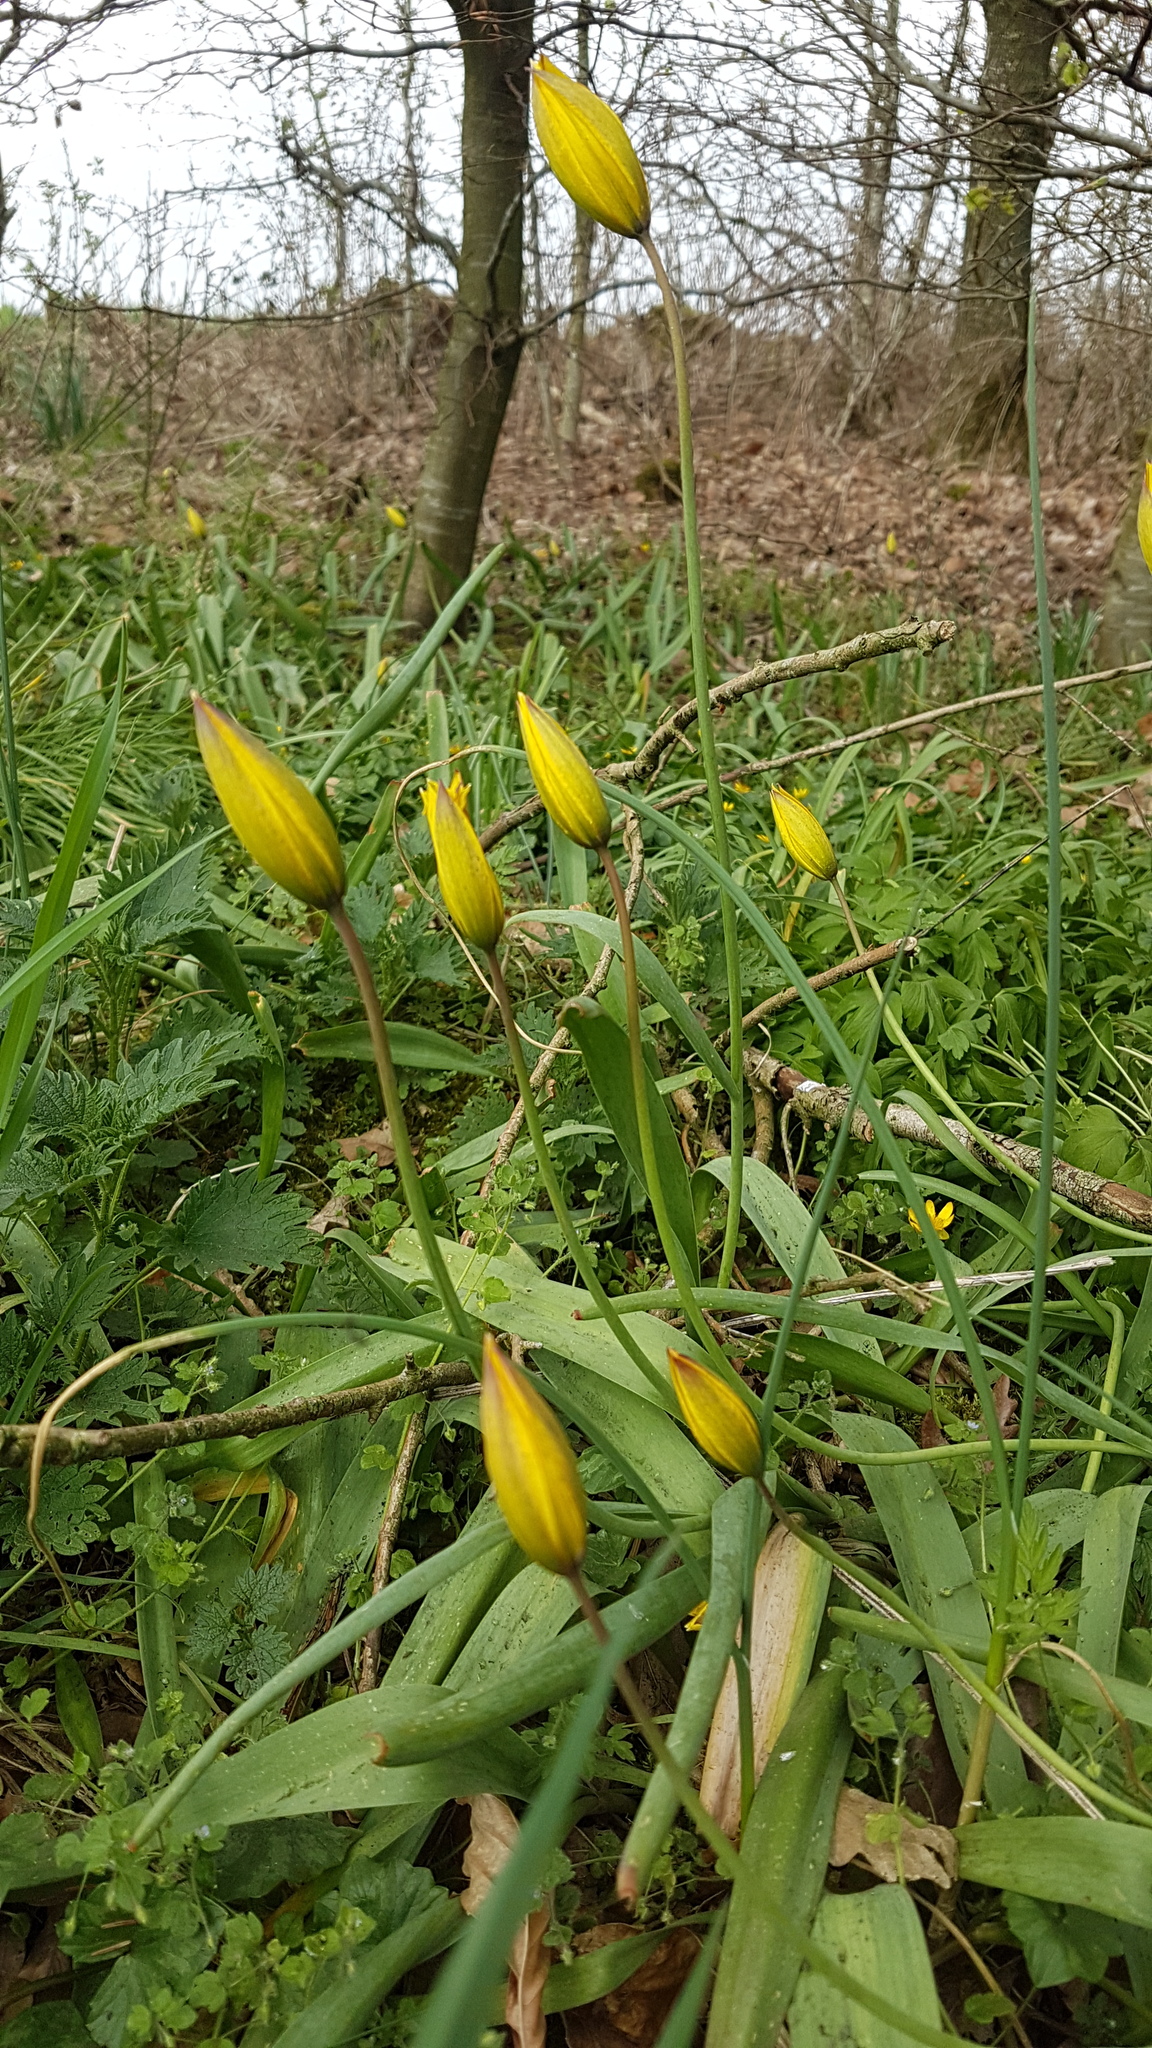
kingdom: Plantae
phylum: Tracheophyta
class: Liliopsida
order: Liliales
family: Liliaceae
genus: Tulipa
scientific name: Tulipa sylvestris
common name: Wild tulip
